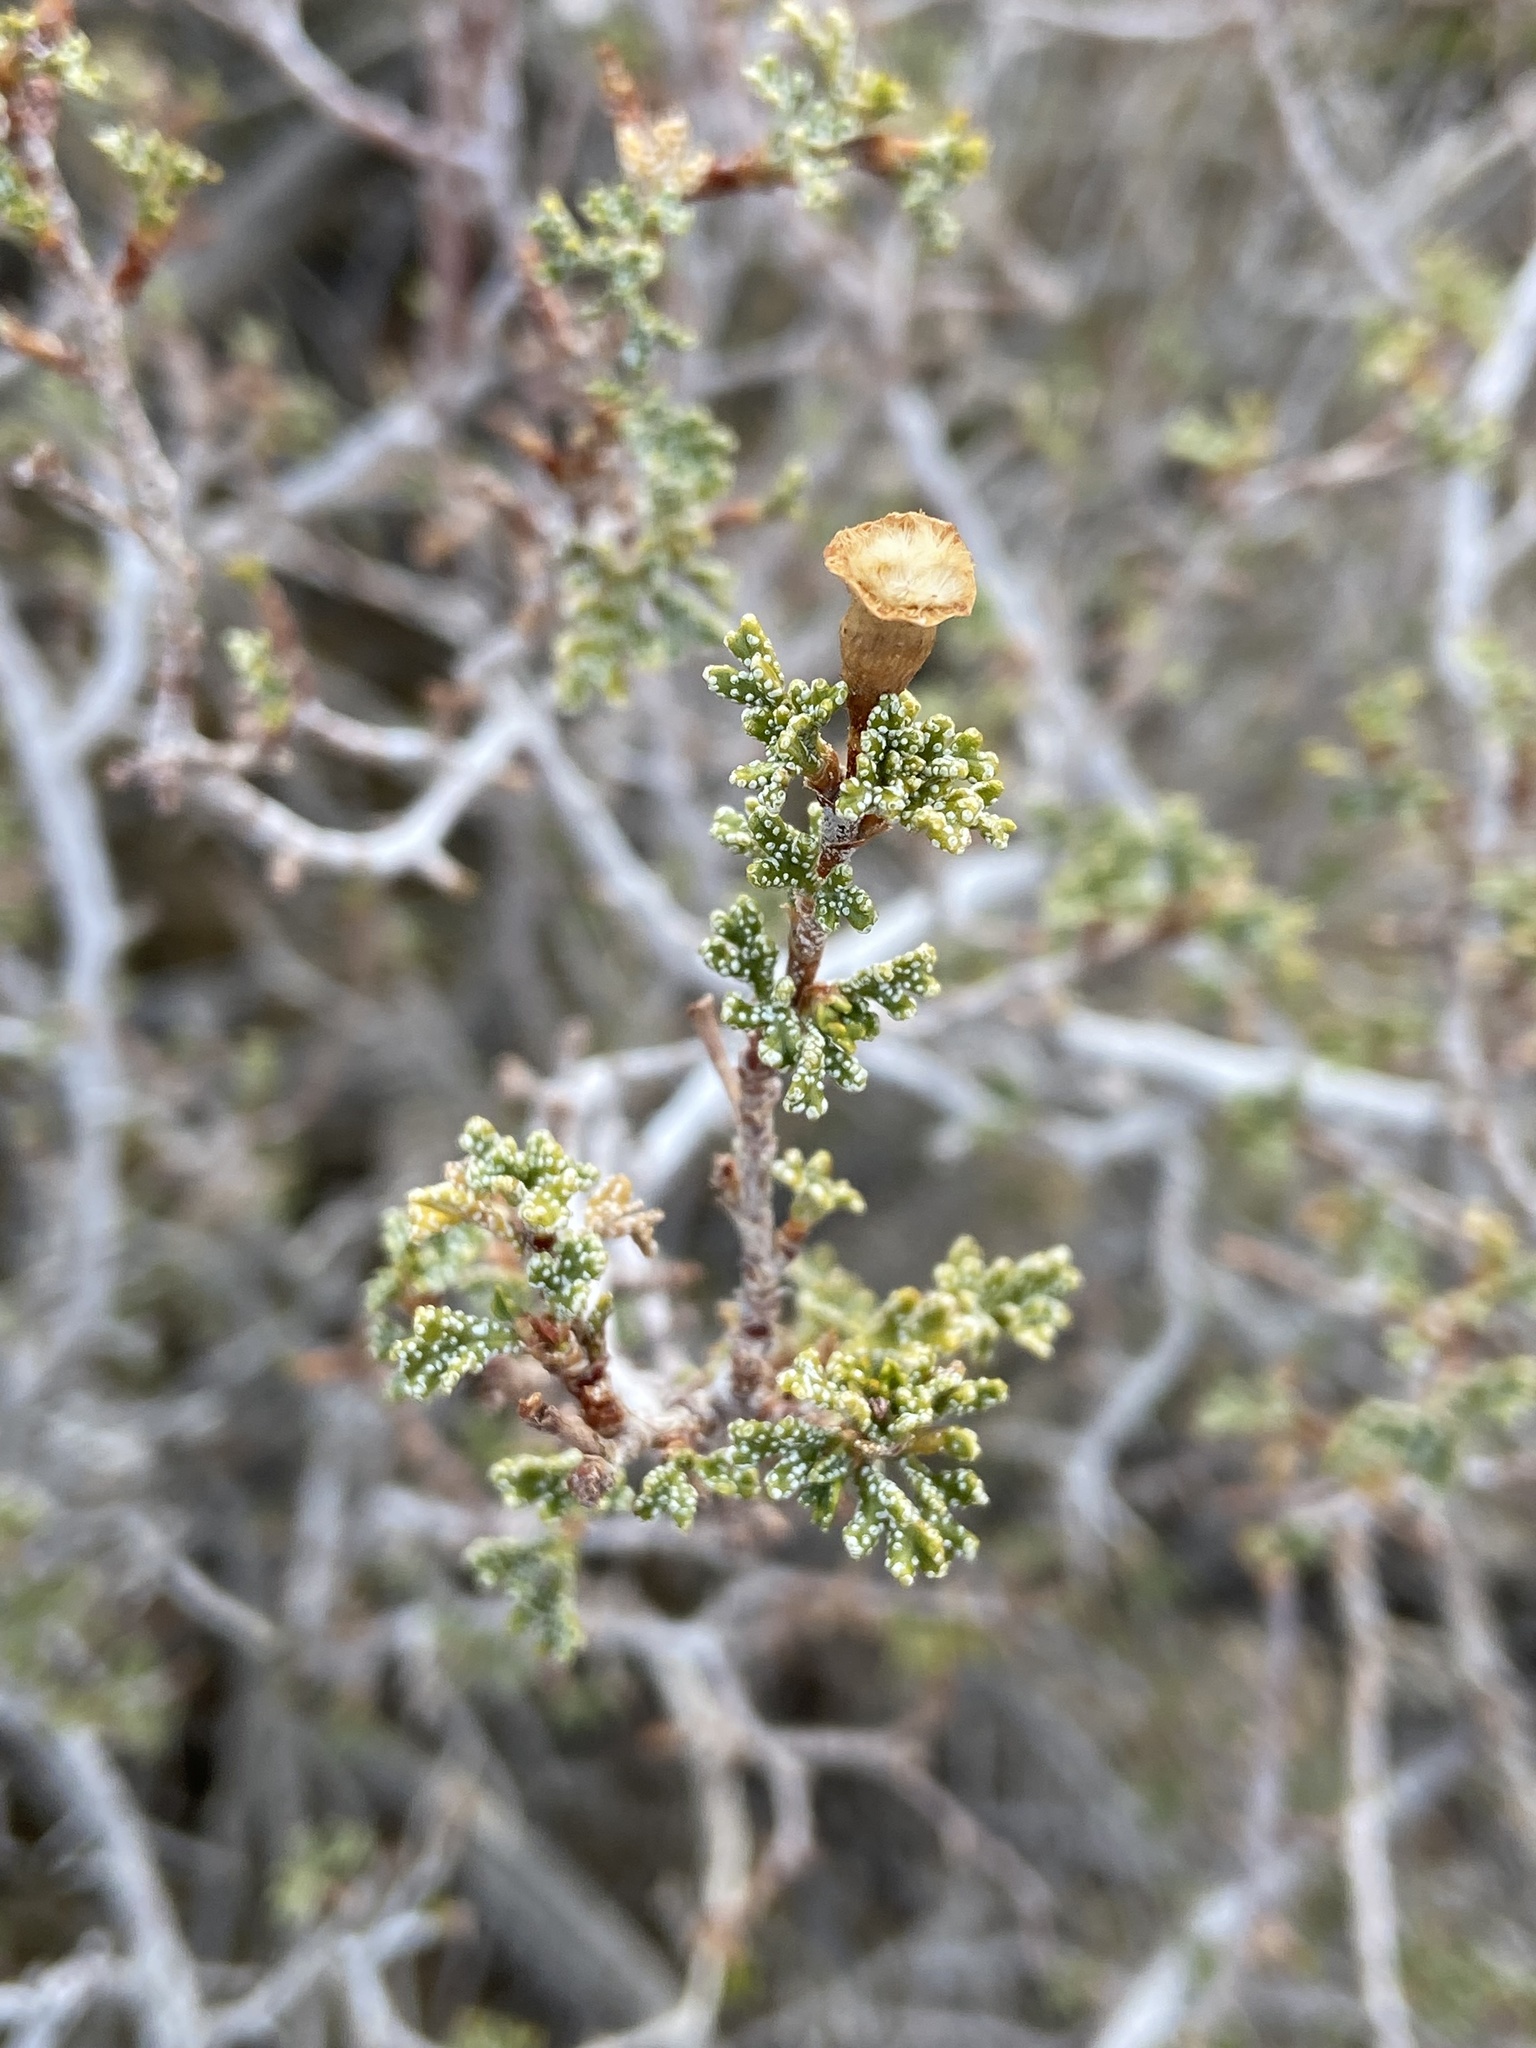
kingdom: Plantae
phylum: Tracheophyta
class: Magnoliopsida
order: Rosales
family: Rosaceae
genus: Purshia
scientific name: Purshia stansburiana
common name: Stansbury's cliffrose
